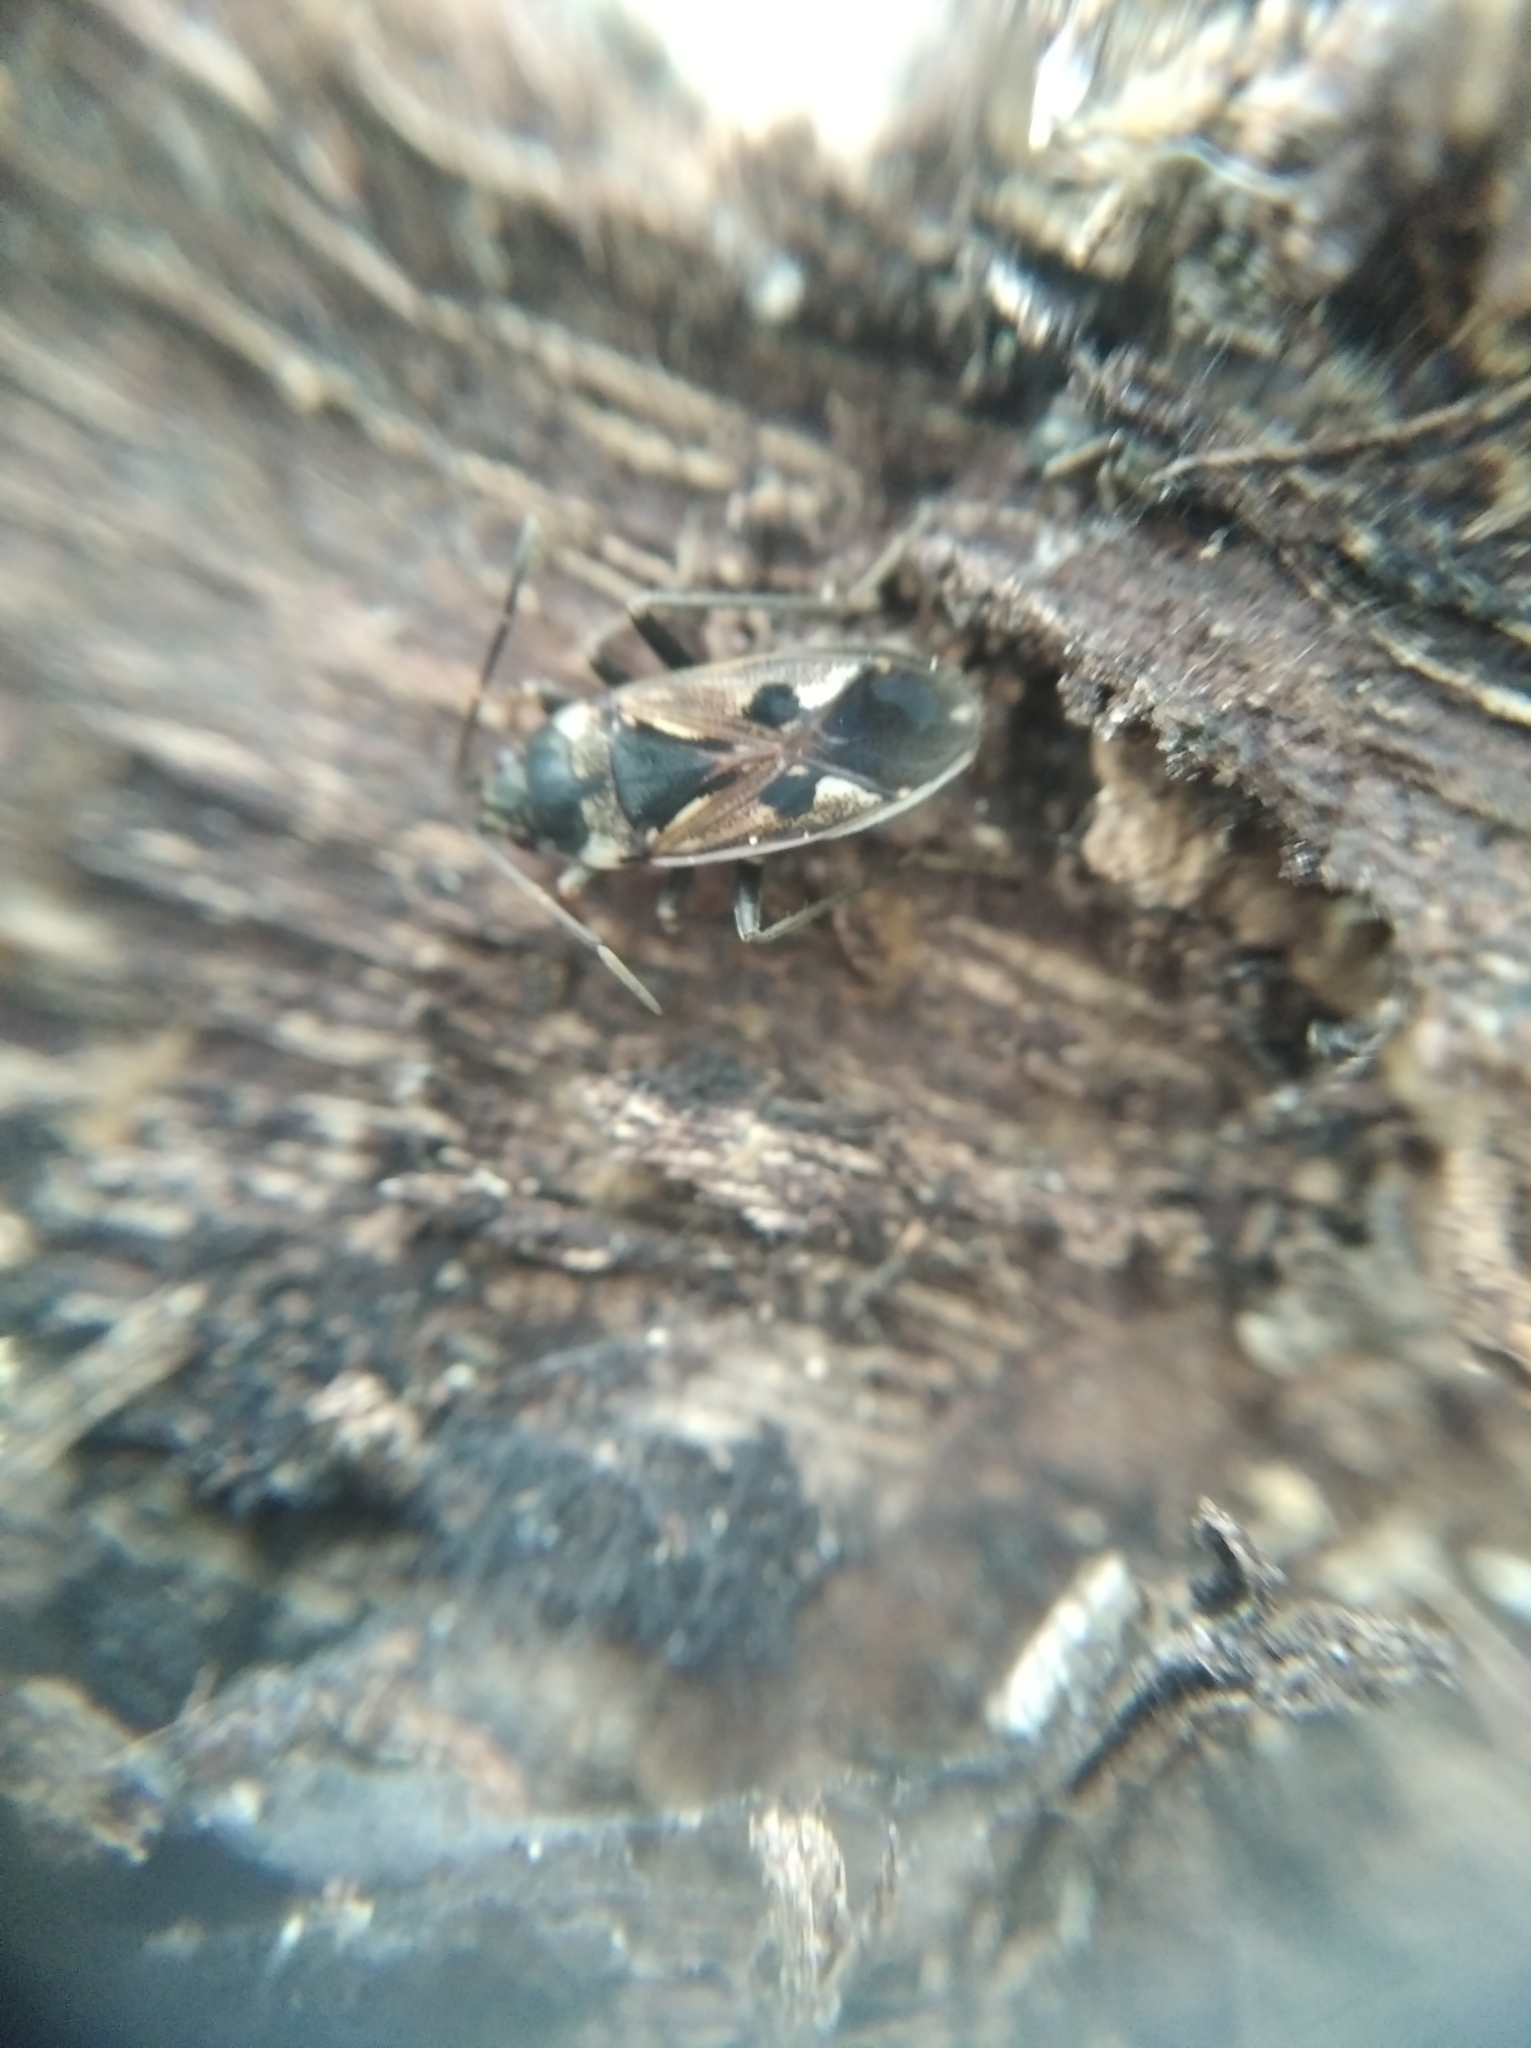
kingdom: Animalia
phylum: Arthropoda
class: Insecta
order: Hemiptera
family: Rhyparochromidae
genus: Rhyparochromus
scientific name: Rhyparochromus vulgaris
